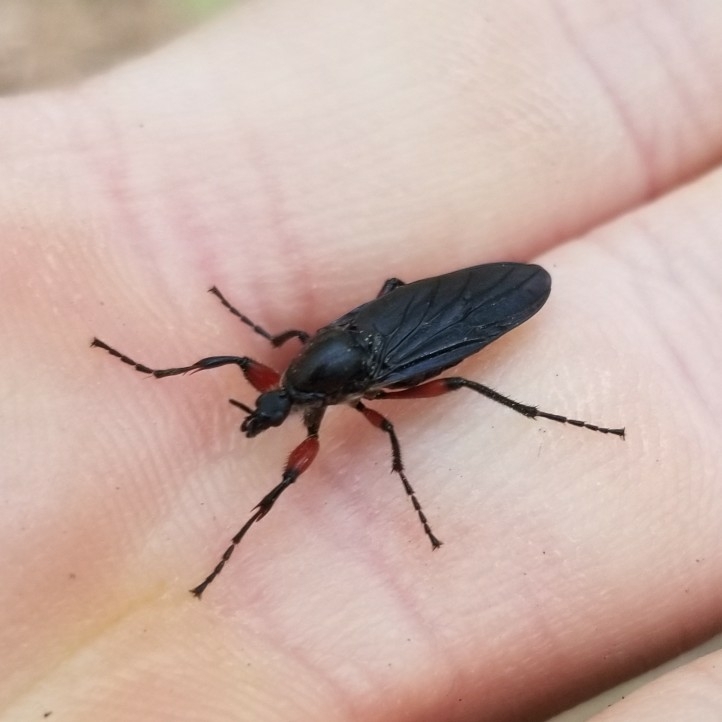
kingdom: Animalia
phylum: Arthropoda
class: Insecta
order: Diptera
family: Bibionidae
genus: Bibio
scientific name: Bibio femoratus
